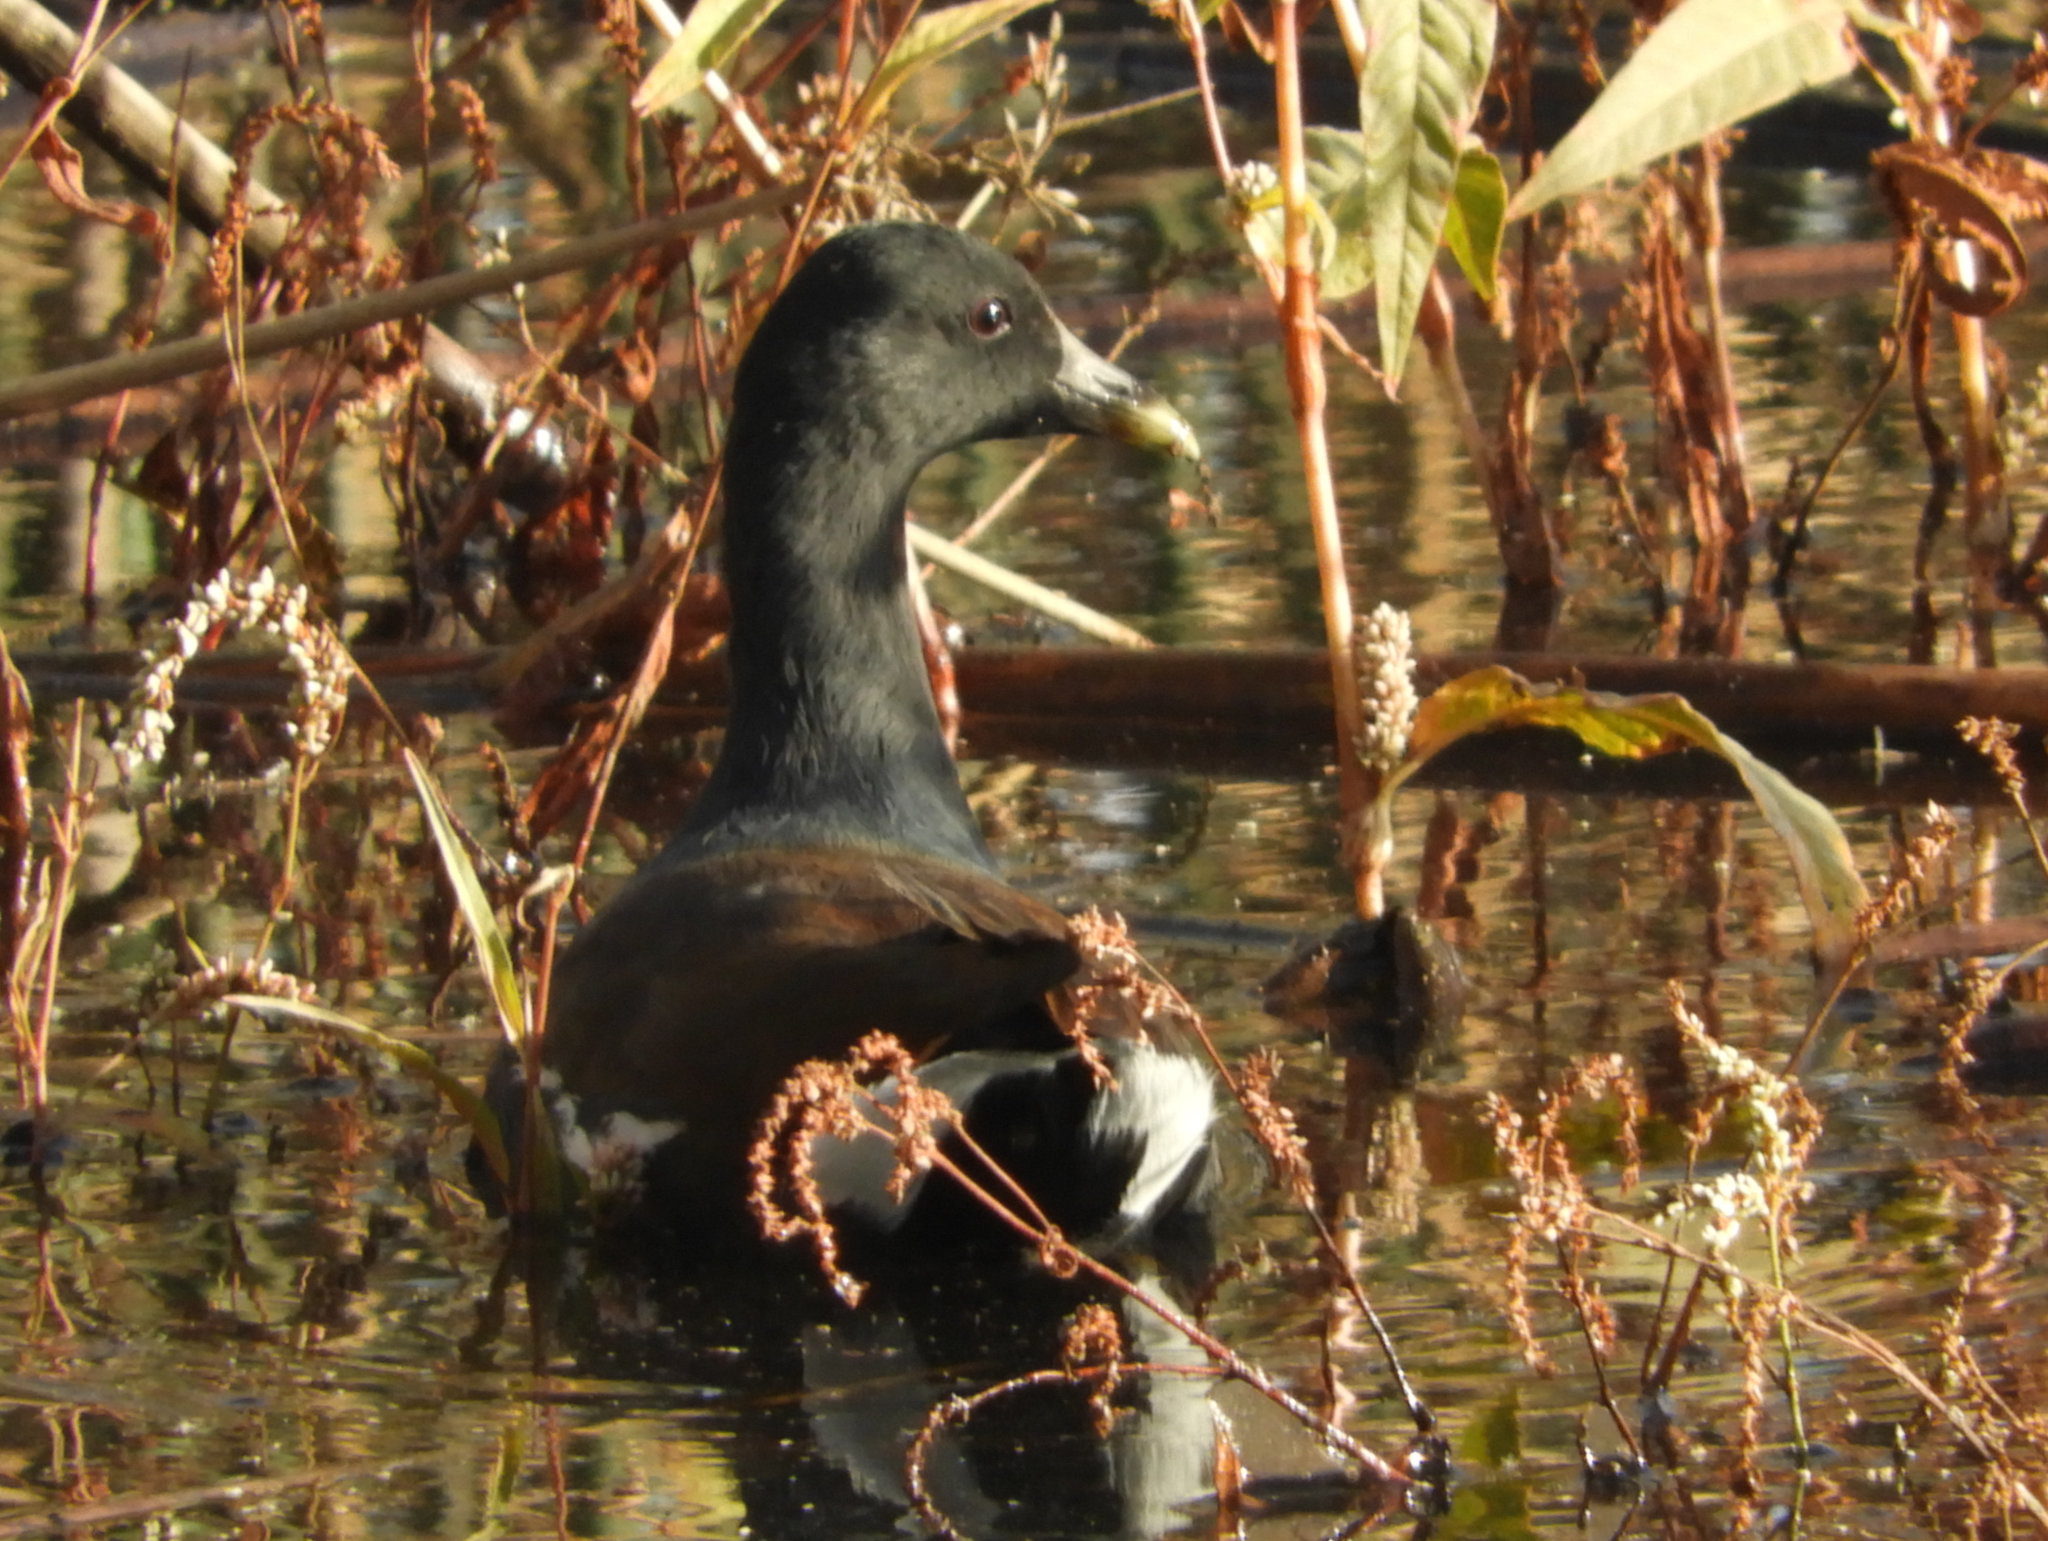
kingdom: Animalia
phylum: Chordata
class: Aves
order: Gruiformes
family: Rallidae
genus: Gallinula
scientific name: Gallinula chloropus
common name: Common moorhen
